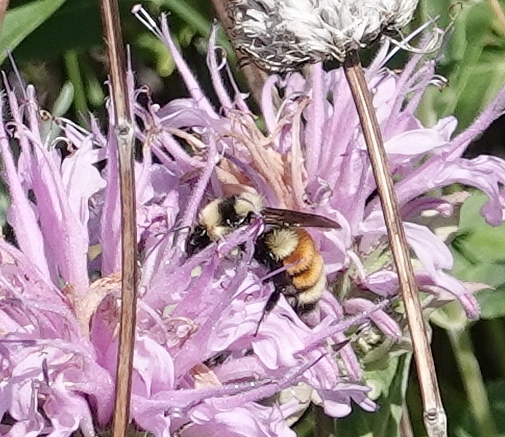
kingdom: Animalia
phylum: Arthropoda
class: Insecta
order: Hymenoptera
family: Apidae
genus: Bombus
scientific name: Bombus huntii
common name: Hunt bumble bee
